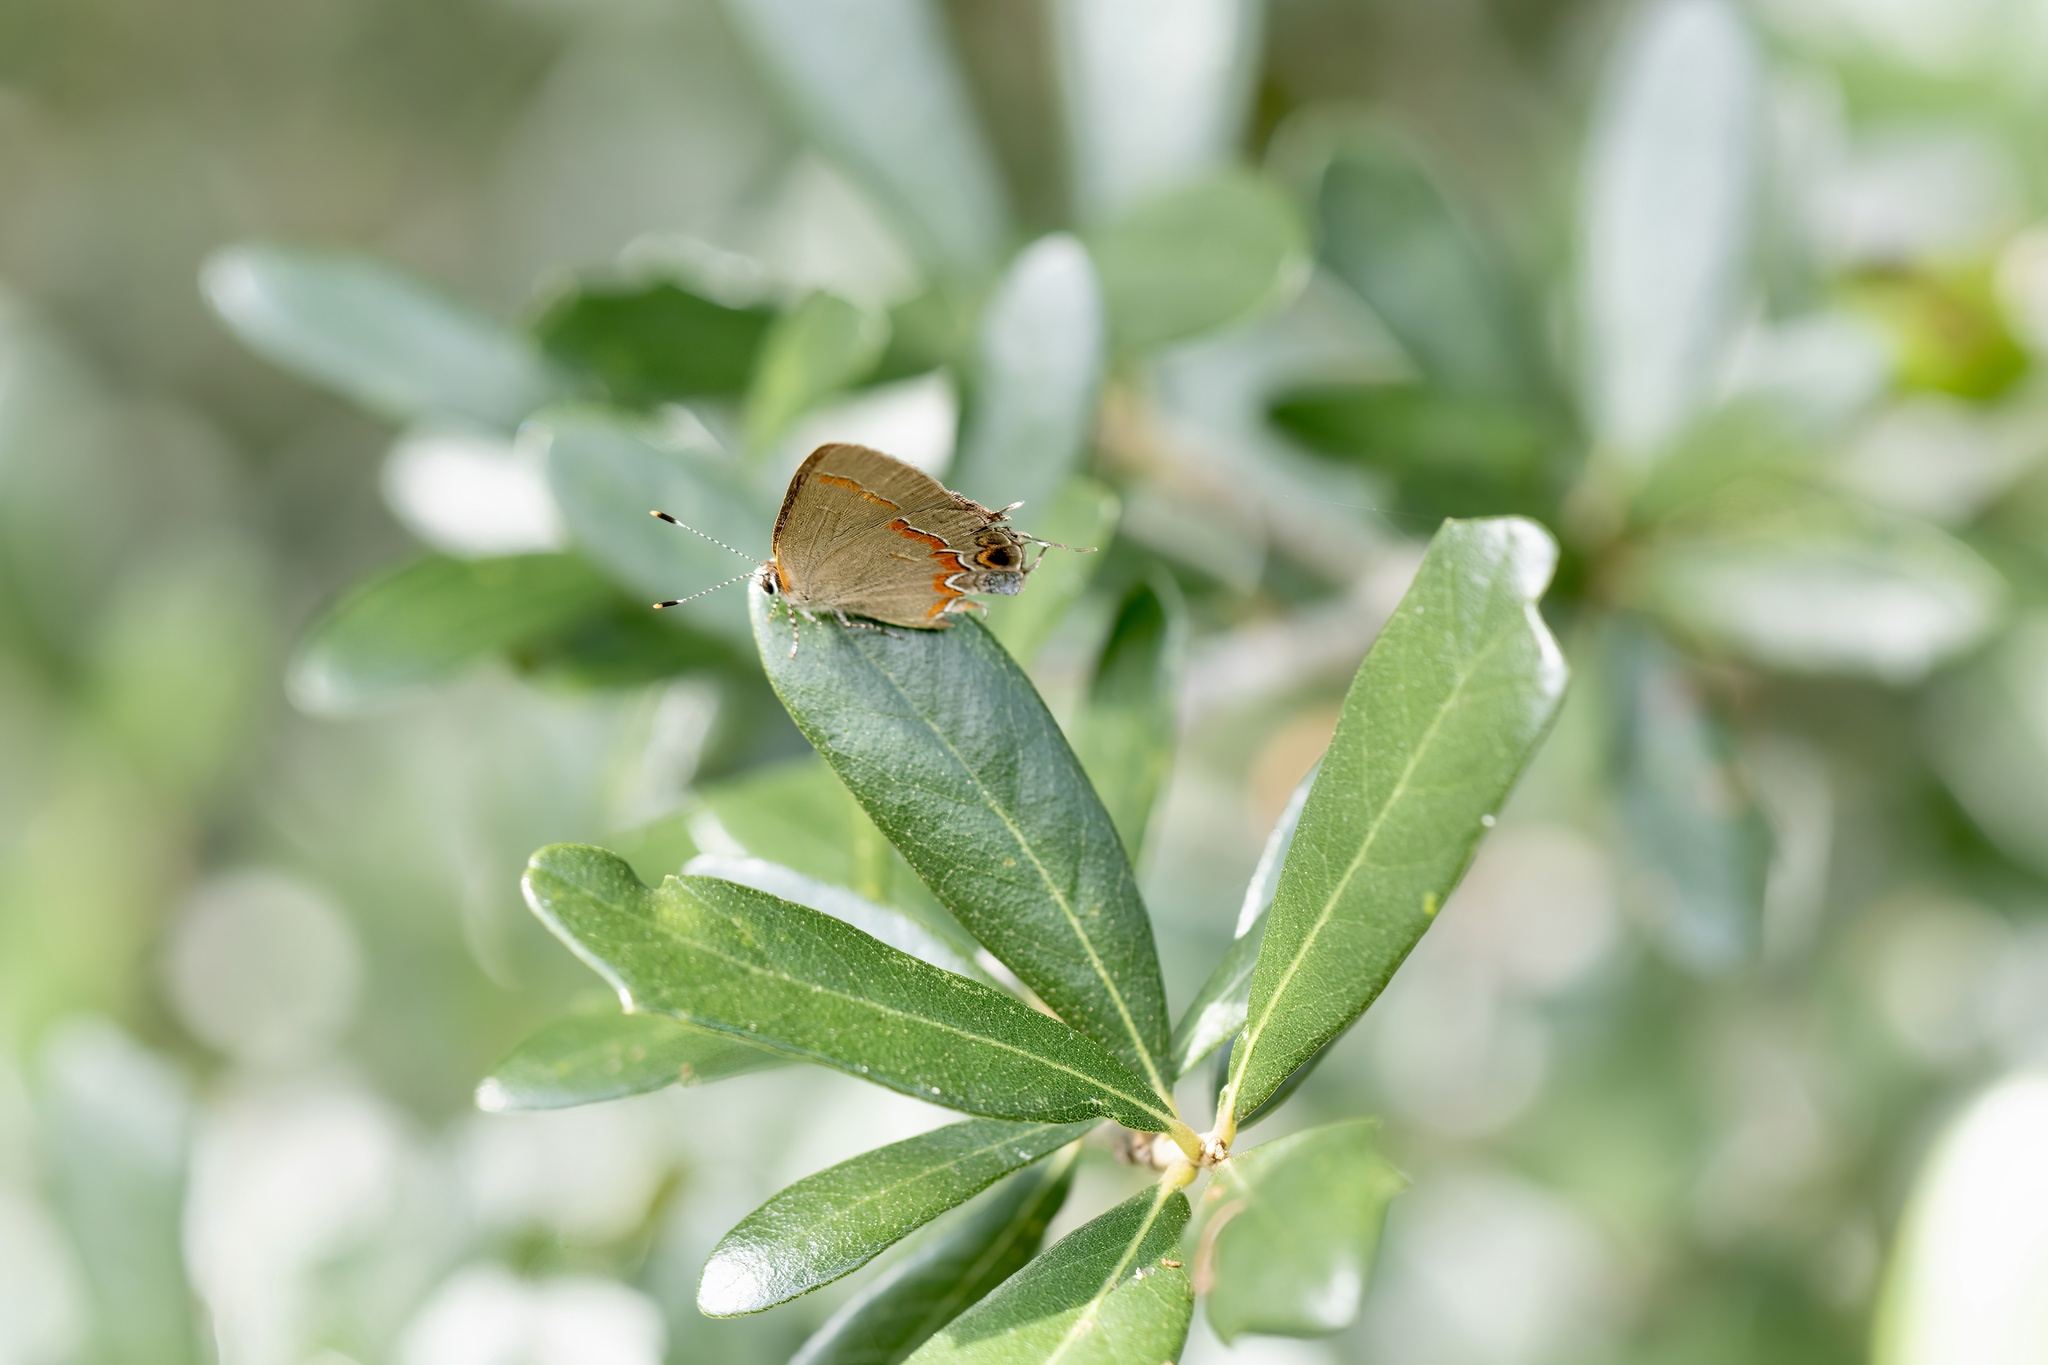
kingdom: Animalia
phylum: Arthropoda
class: Insecta
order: Lepidoptera
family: Lycaenidae
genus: Calycopis
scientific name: Calycopis cecrops
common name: Red-banded hairstreak
